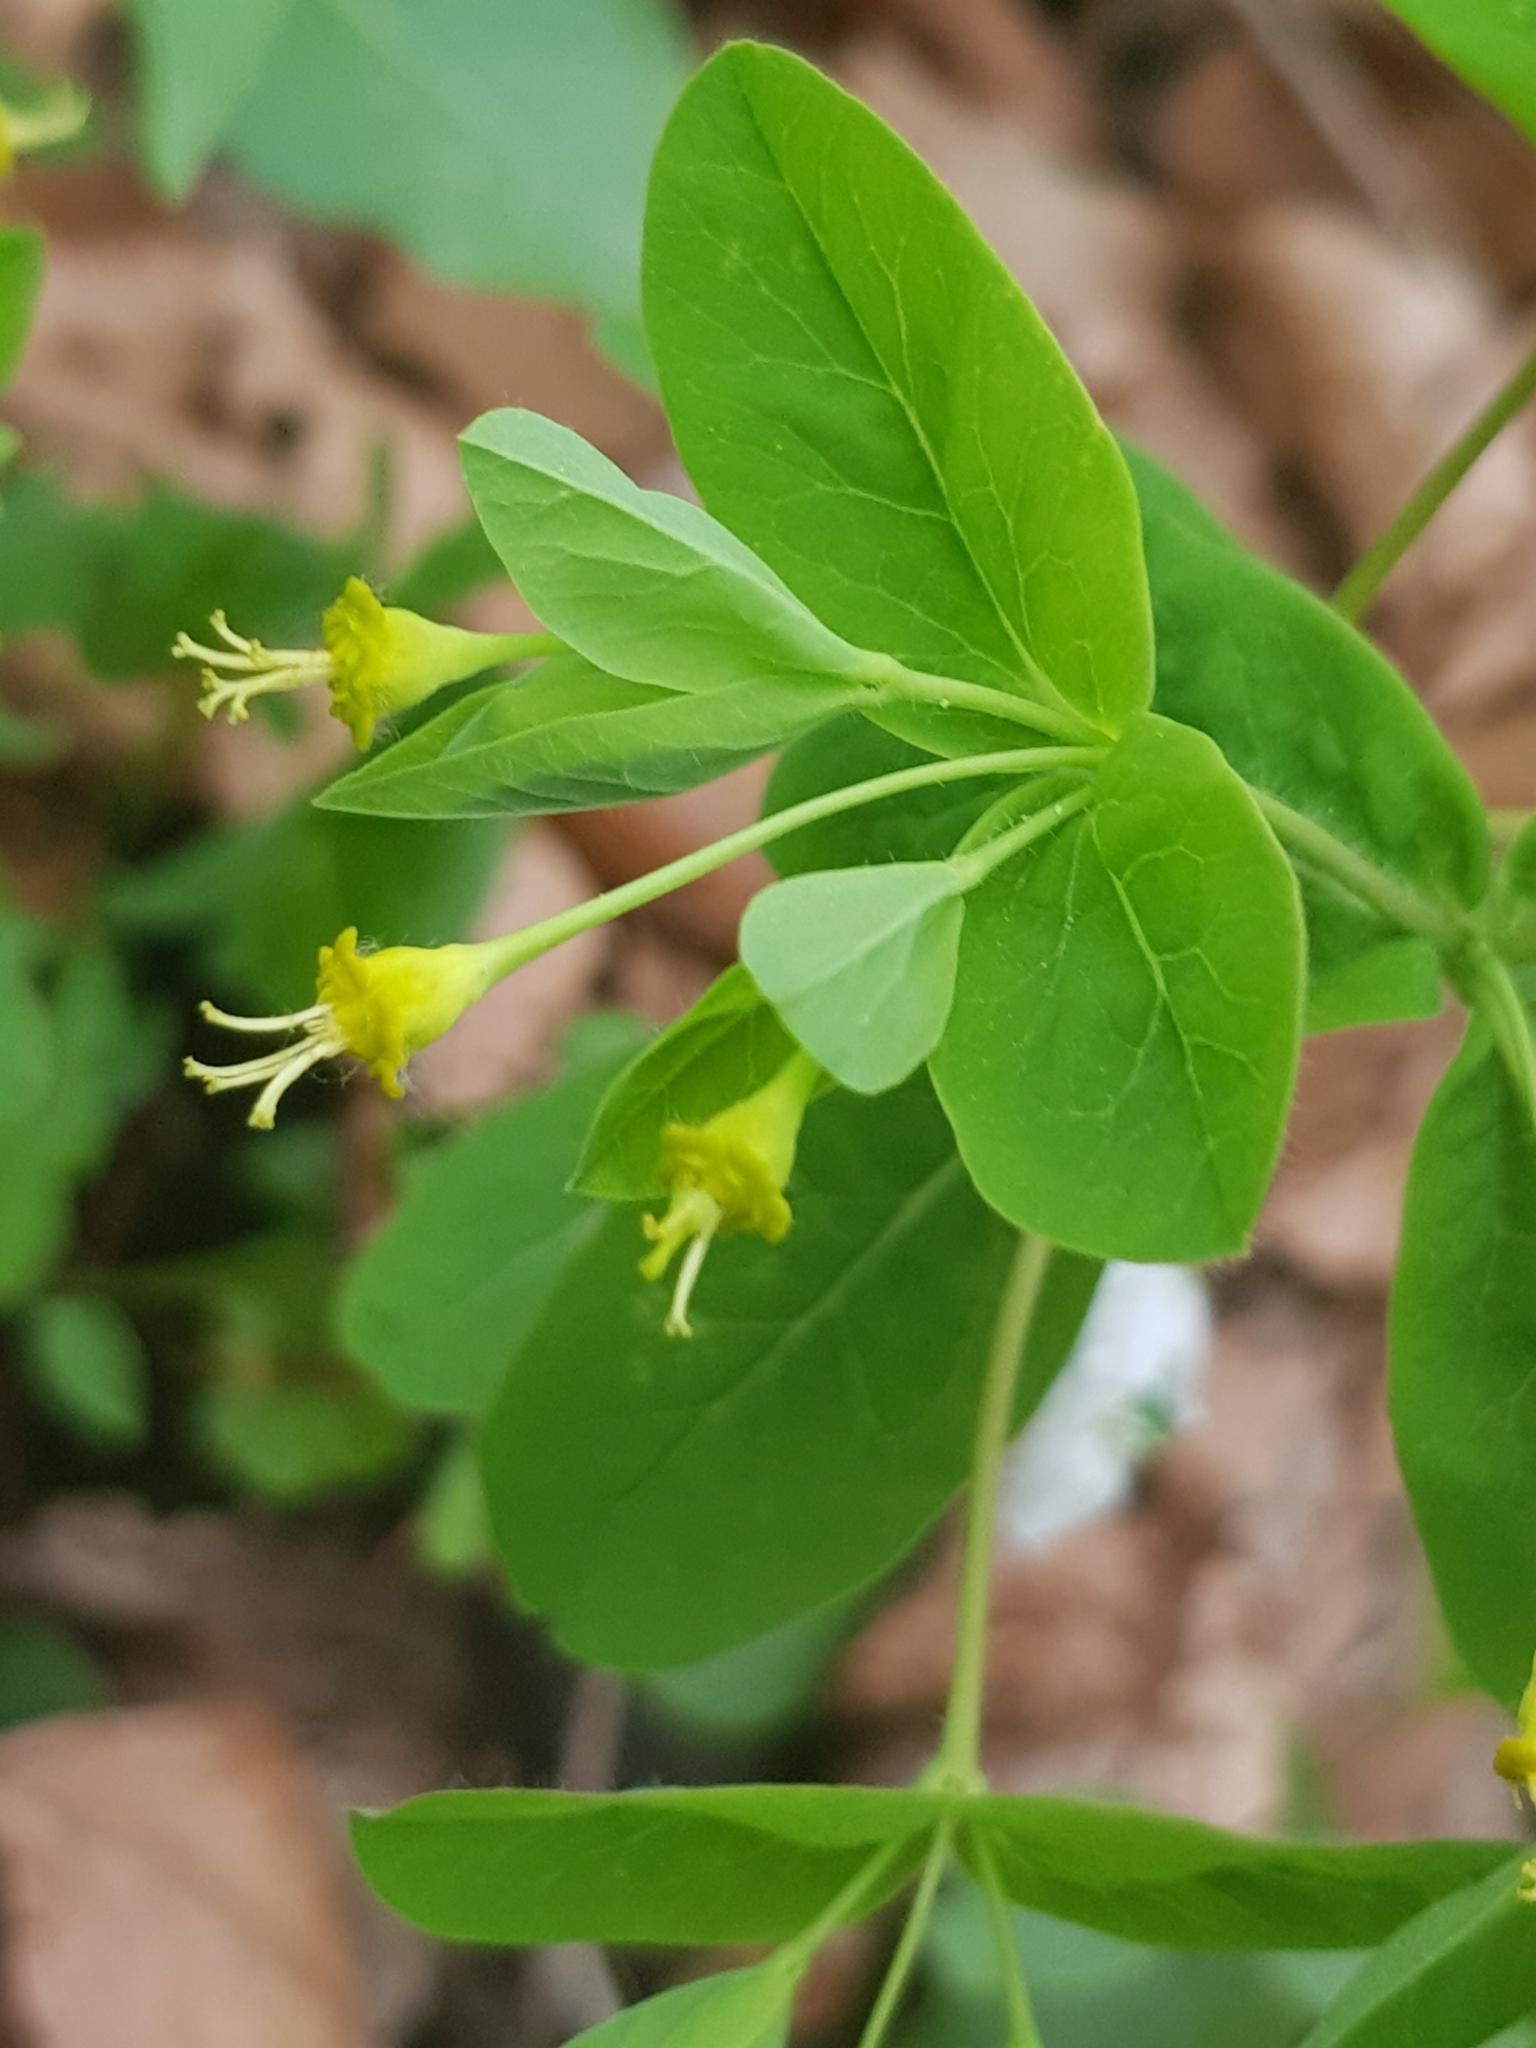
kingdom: Plantae
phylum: Tracheophyta
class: Magnoliopsida
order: Malpighiales
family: Euphorbiaceae
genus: Euphorbia
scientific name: Euphorbia carniolica
